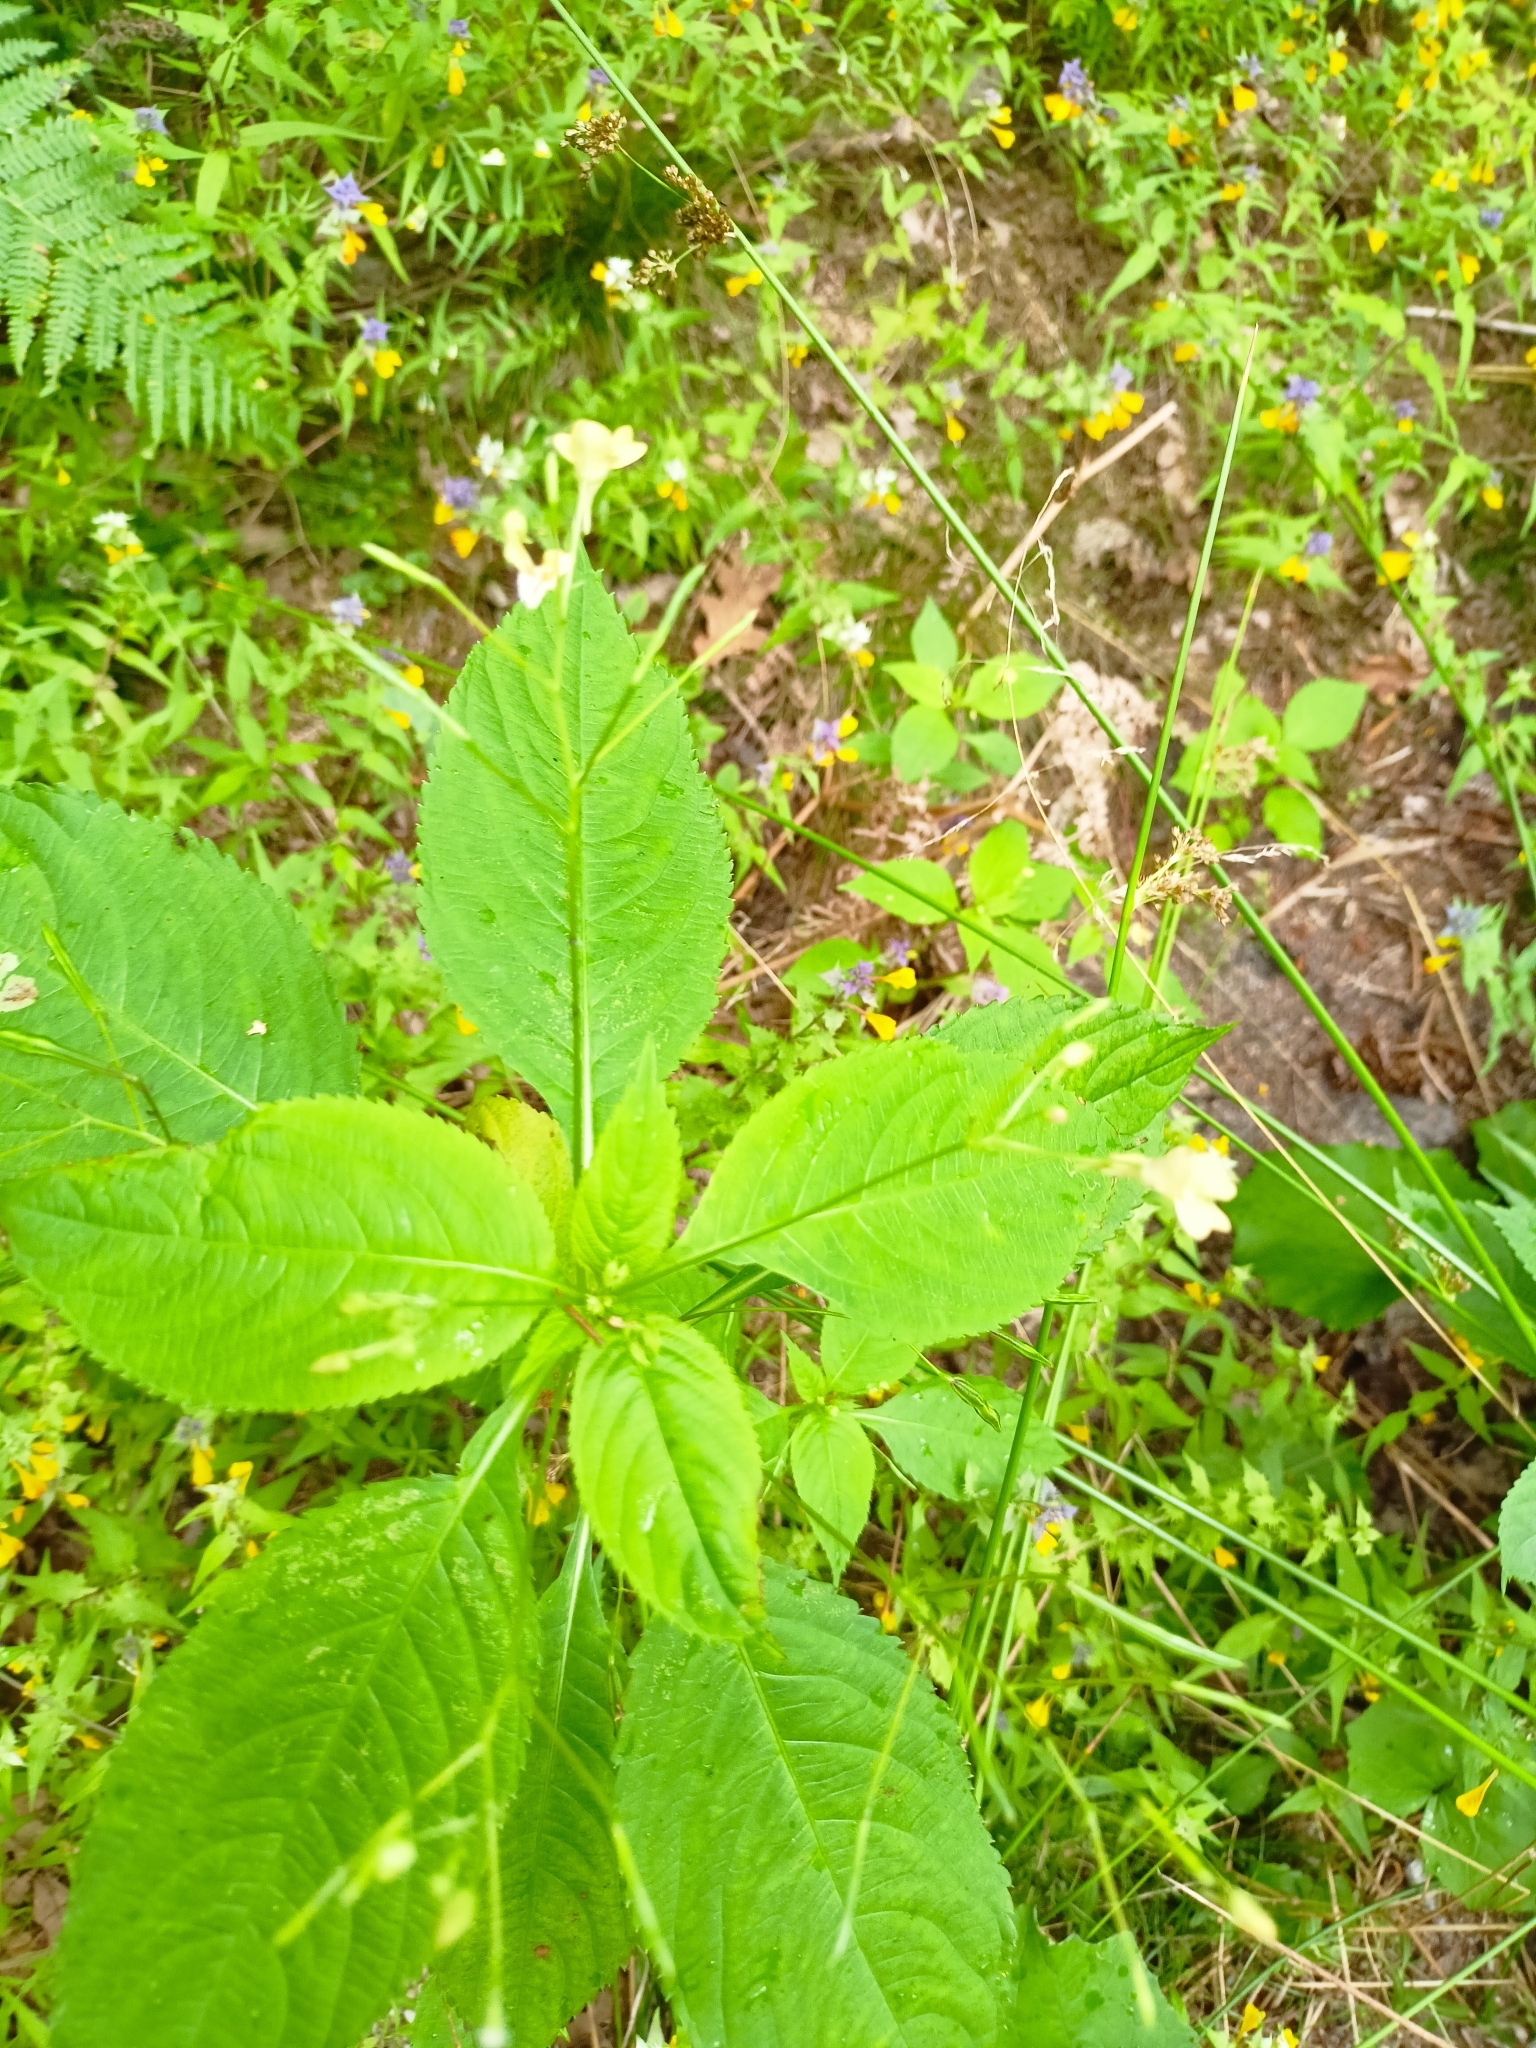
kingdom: Plantae
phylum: Tracheophyta
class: Magnoliopsida
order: Ericales
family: Balsaminaceae
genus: Impatiens
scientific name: Impatiens parviflora
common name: Small balsam
